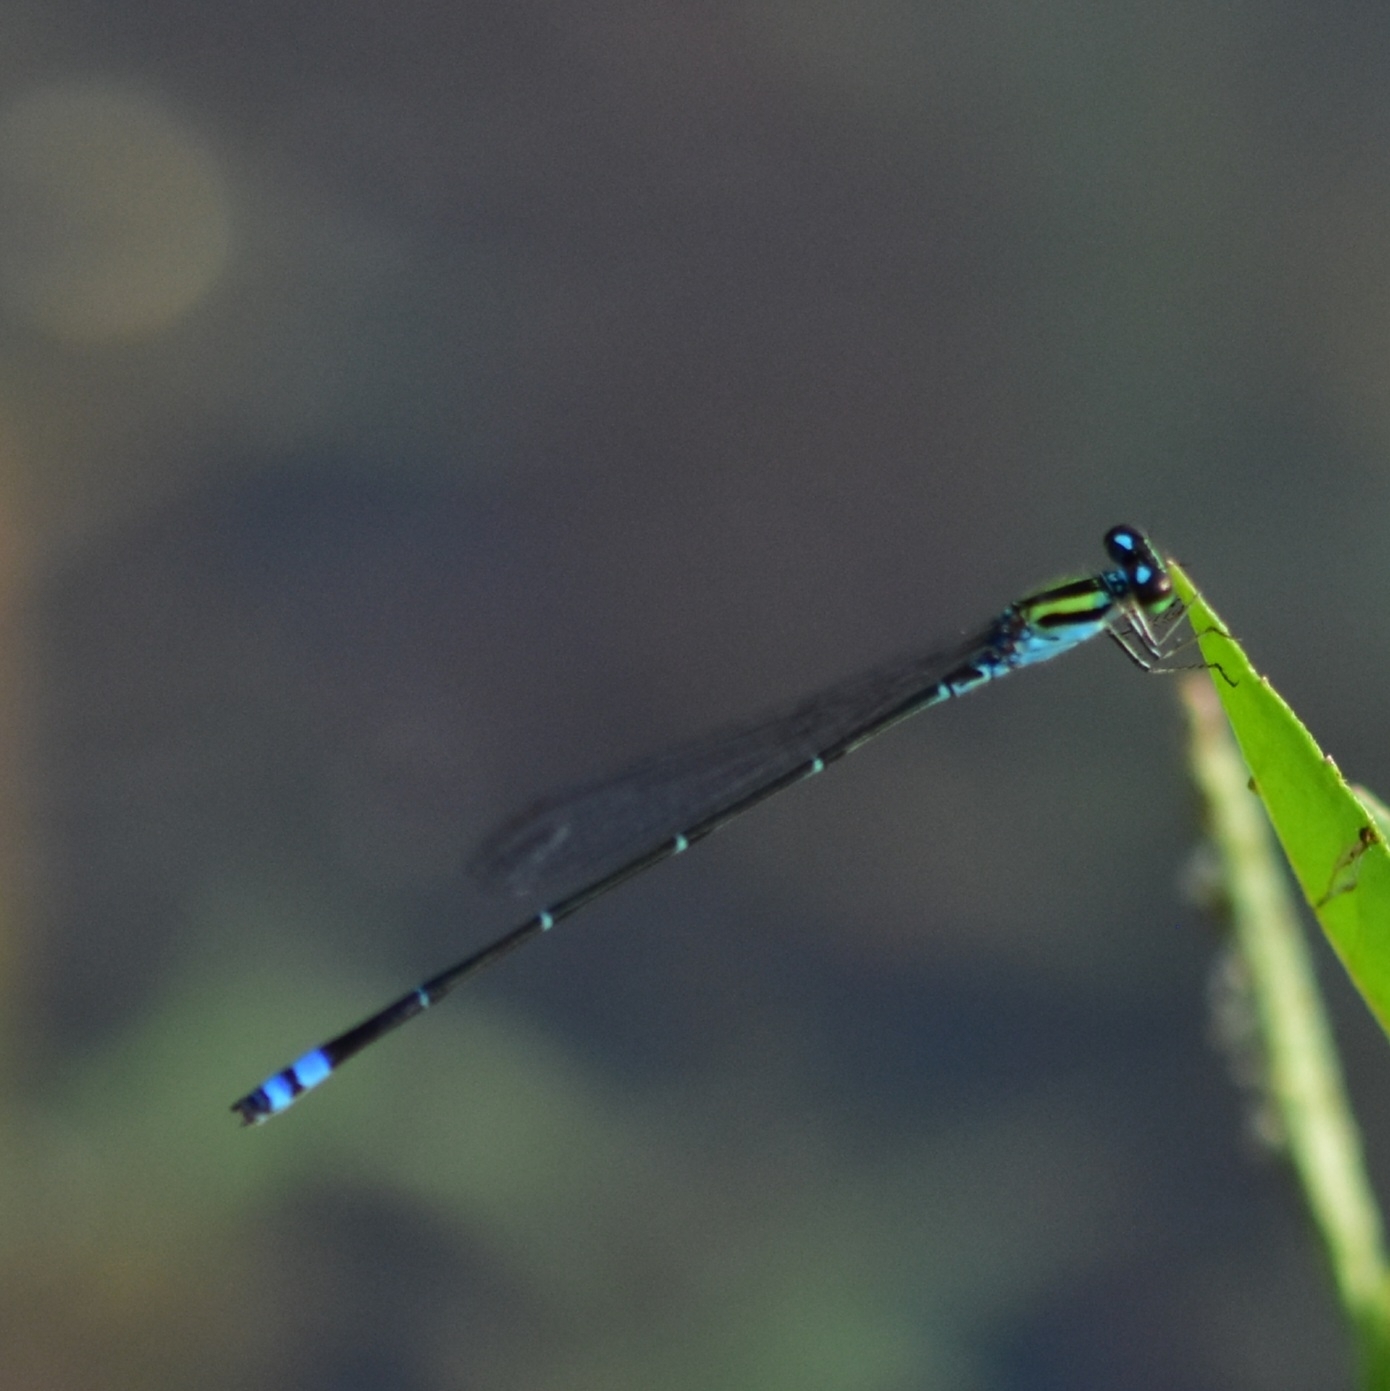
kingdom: Animalia
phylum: Arthropoda
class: Insecta
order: Odonata
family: Coenagrionidae
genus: Pseudagrion
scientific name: Pseudagrion indicum
